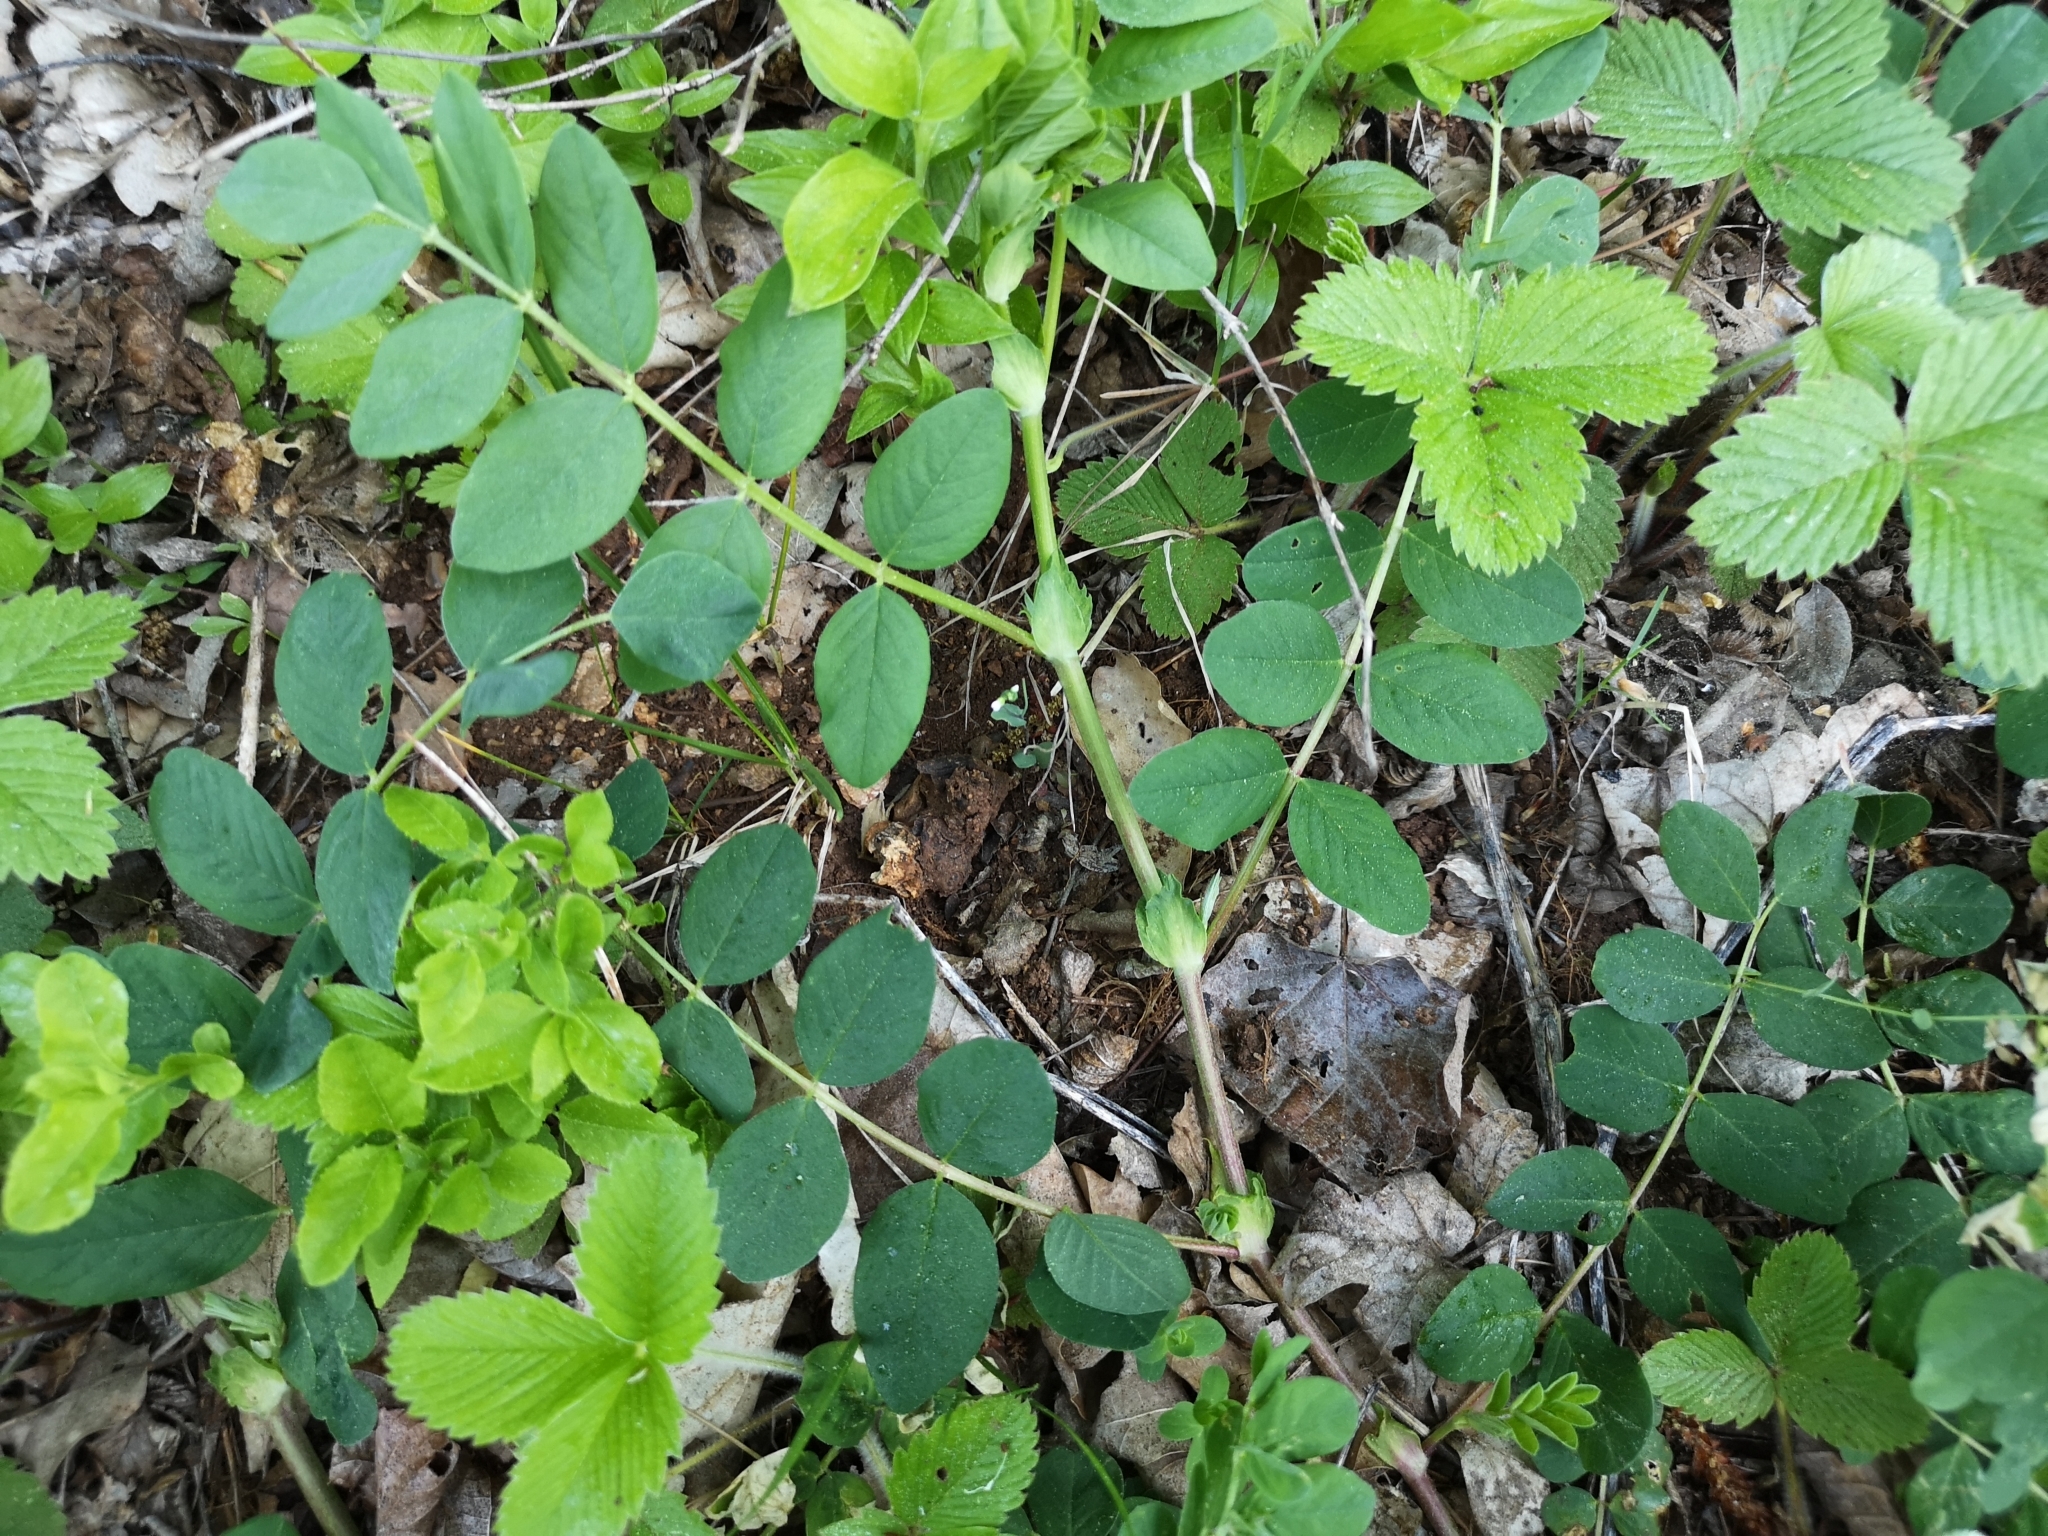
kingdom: Plantae
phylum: Tracheophyta
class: Magnoliopsida
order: Fabales
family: Fabaceae
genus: Astragalus
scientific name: Astragalus glycyphyllos
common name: Wild liquorice
